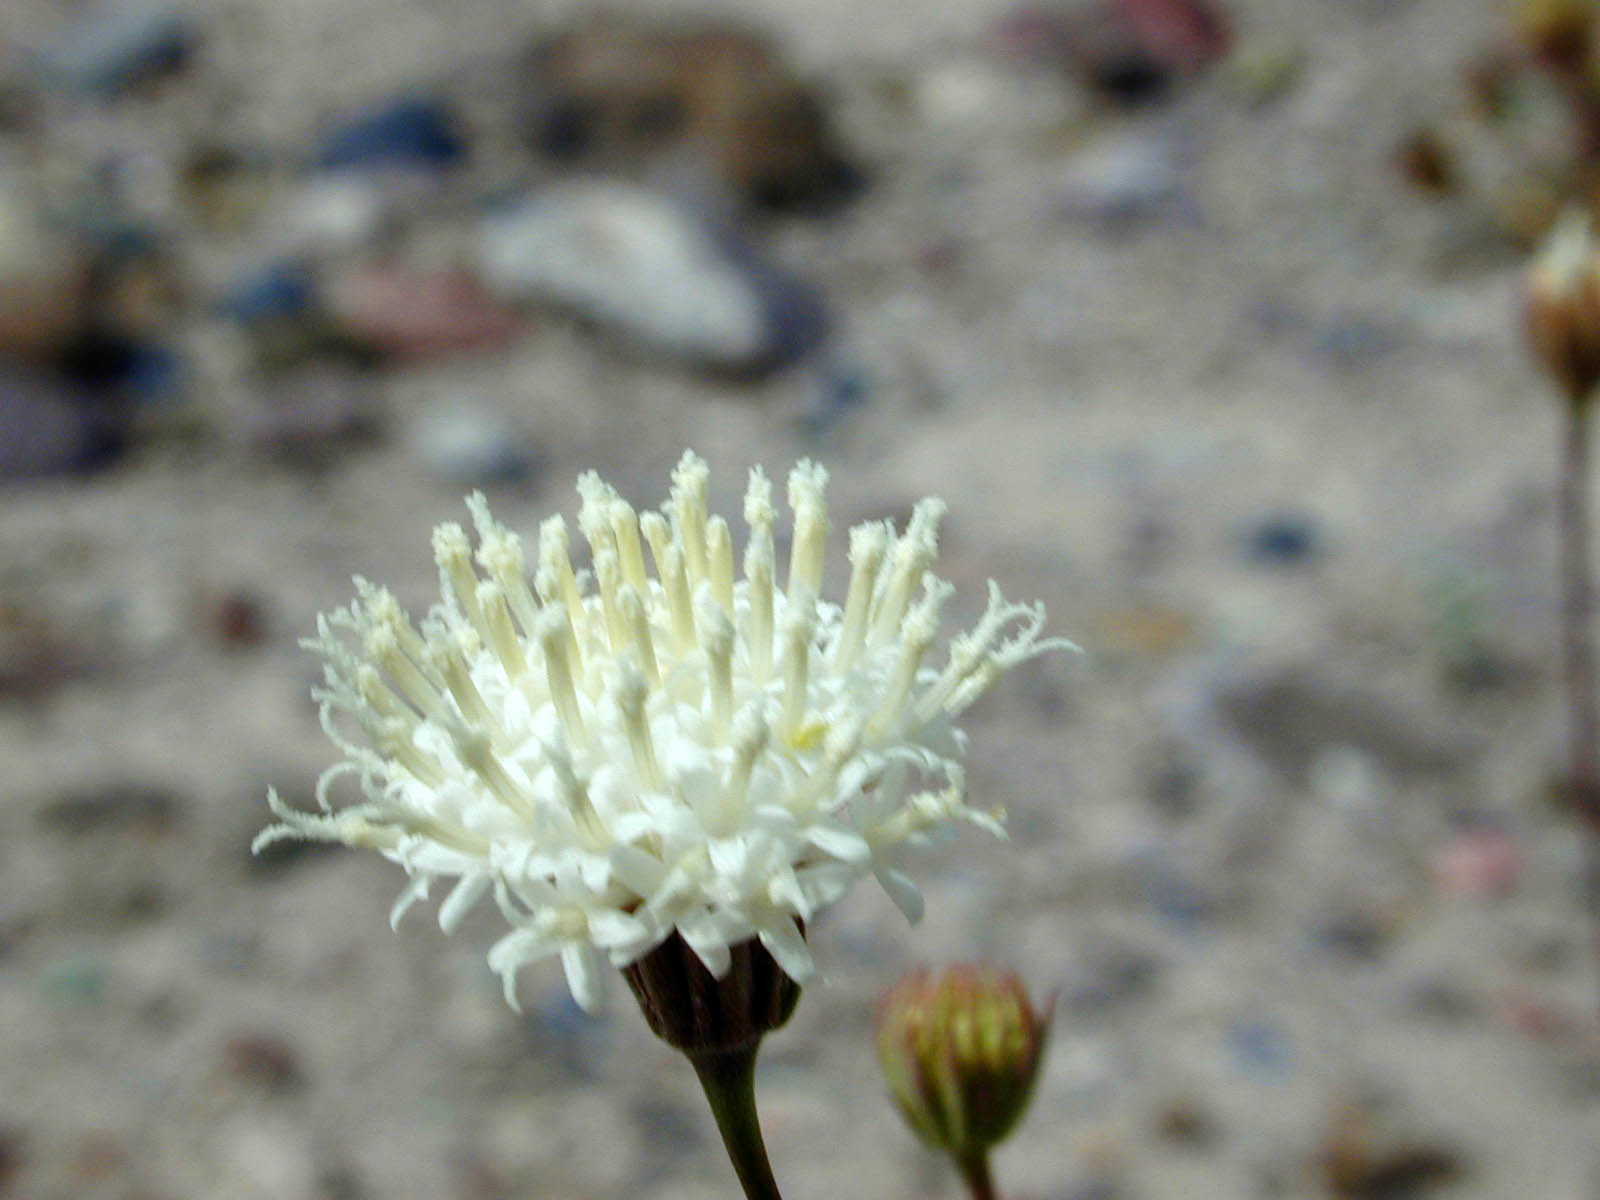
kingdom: Plantae
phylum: Tracheophyta
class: Magnoliopsida
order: Asterales
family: Asteraceae
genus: Chaenactis
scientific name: Chaenactis carphoclinia
